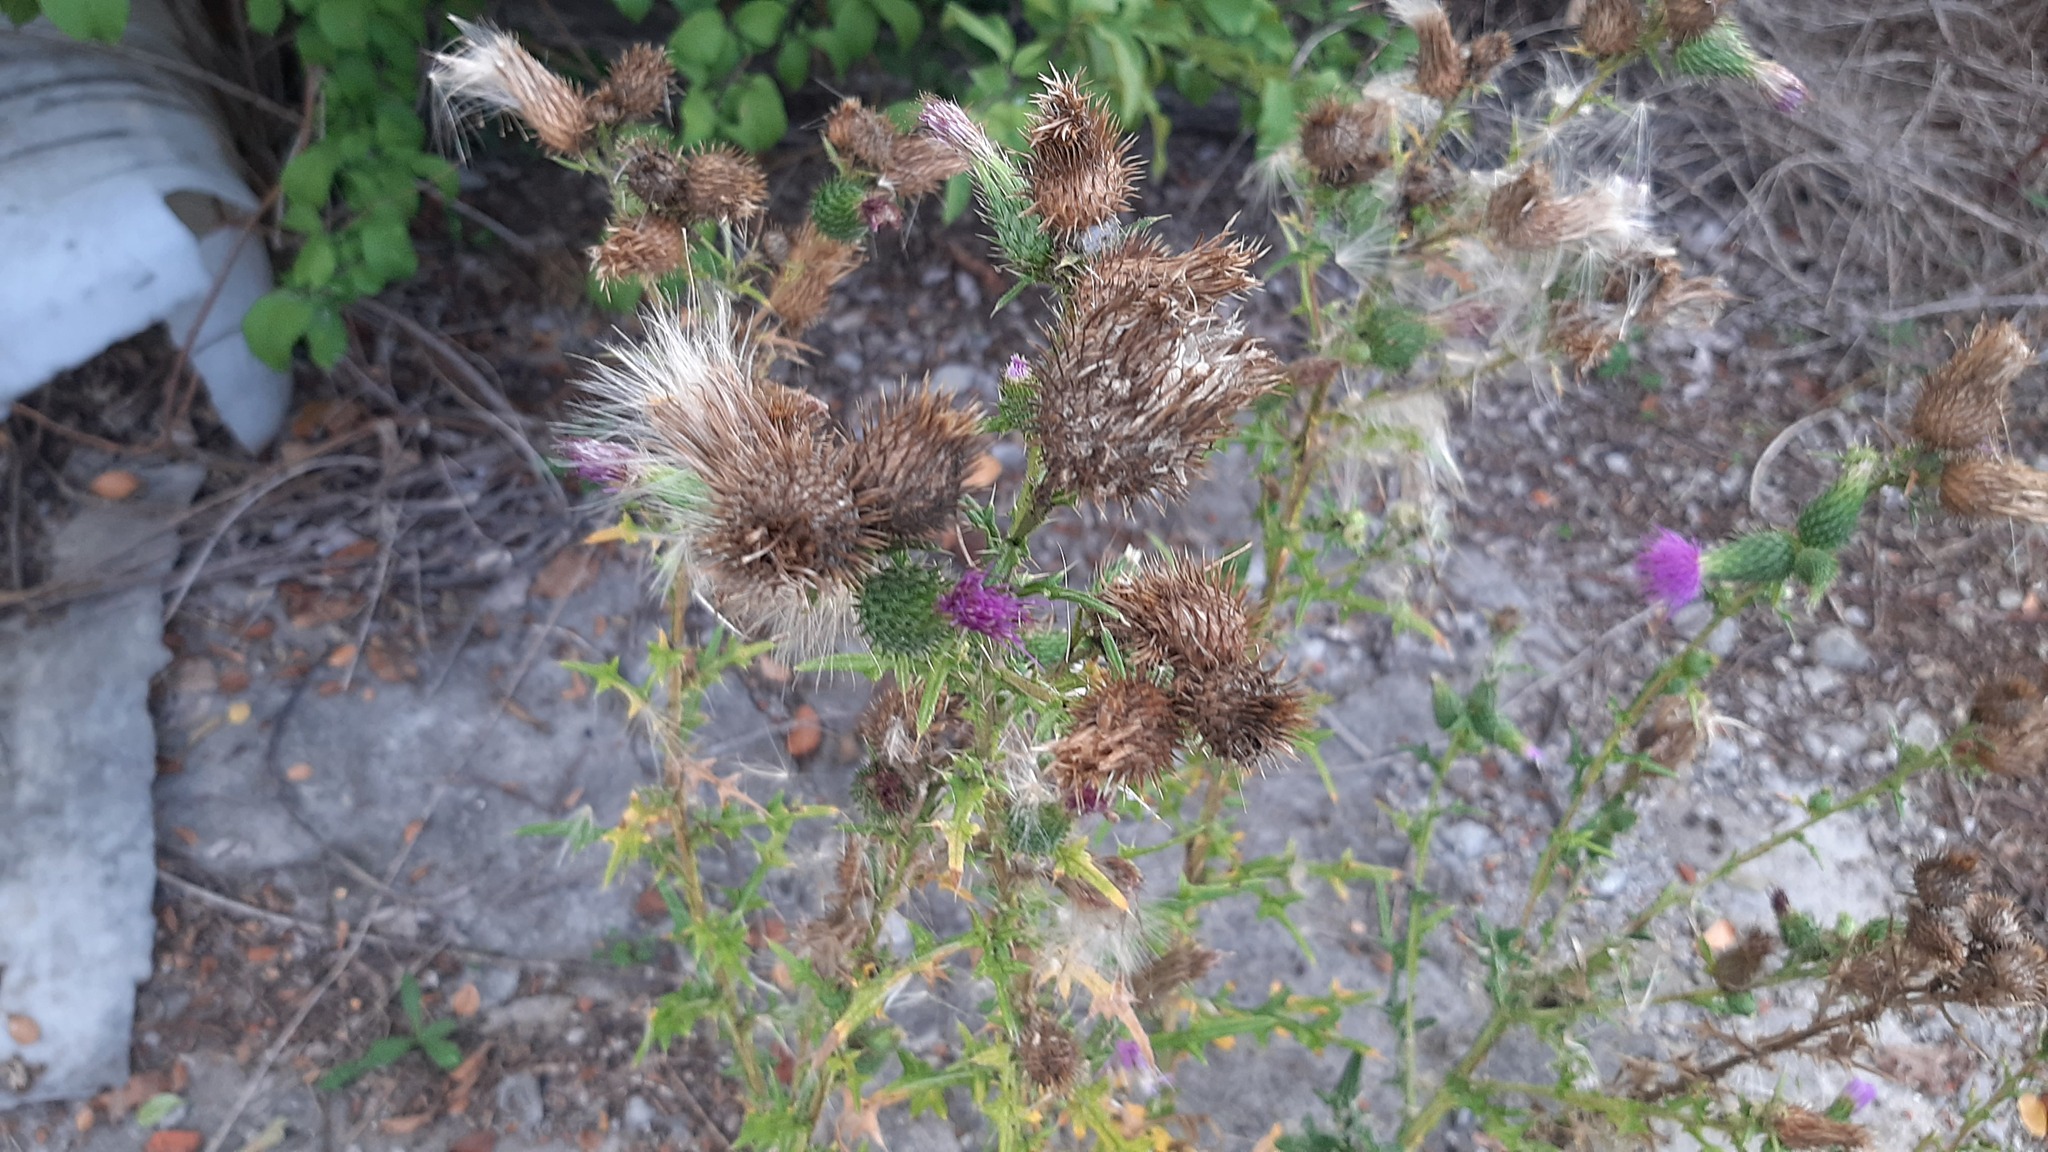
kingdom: Plantae
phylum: Tracheophyta
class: Magnoliopsida
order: Asterales
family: Asteraceae
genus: Cirsium
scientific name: Cirsium vulgare
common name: Bull thistle
